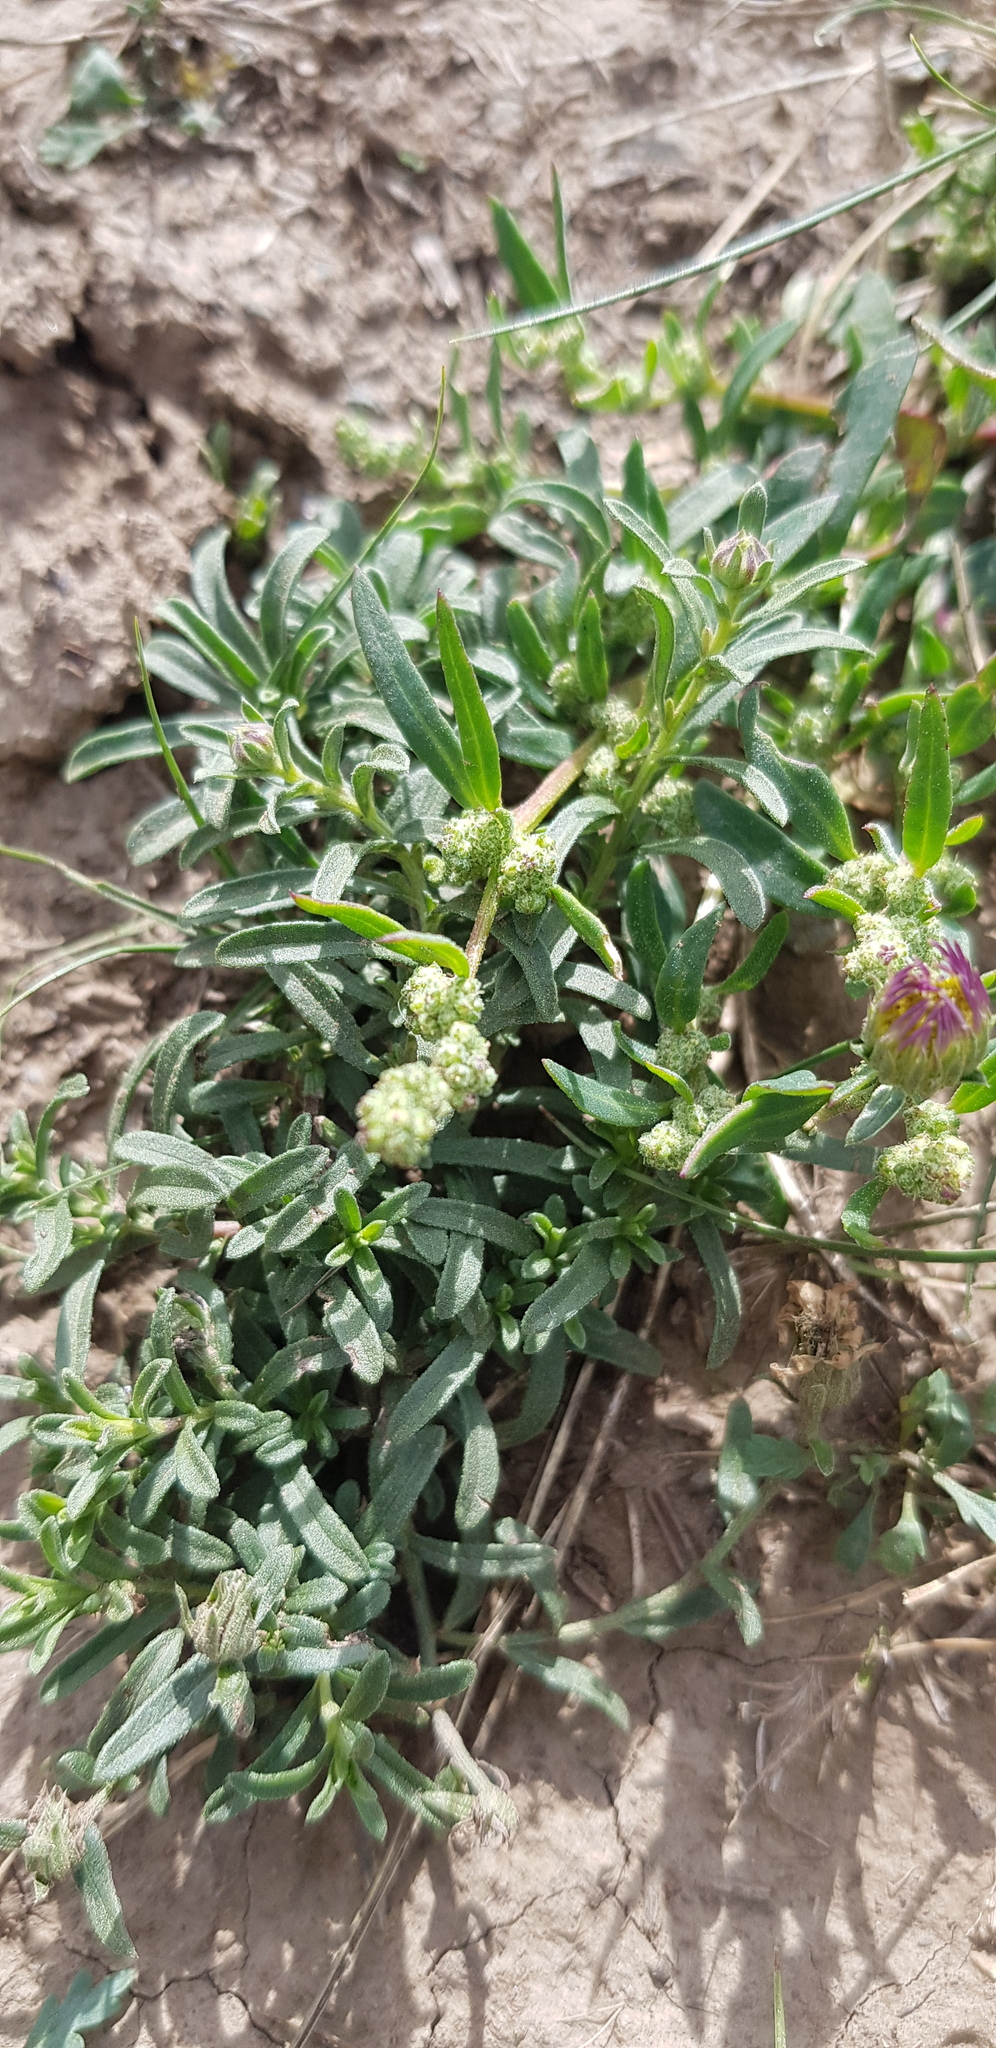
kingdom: Plantae
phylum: Tracheophyta
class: Magnoliopsida
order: Caryophyllales
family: Amaranthaceae
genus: Bassia
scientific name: Bassia scoparia
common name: Belvedere
